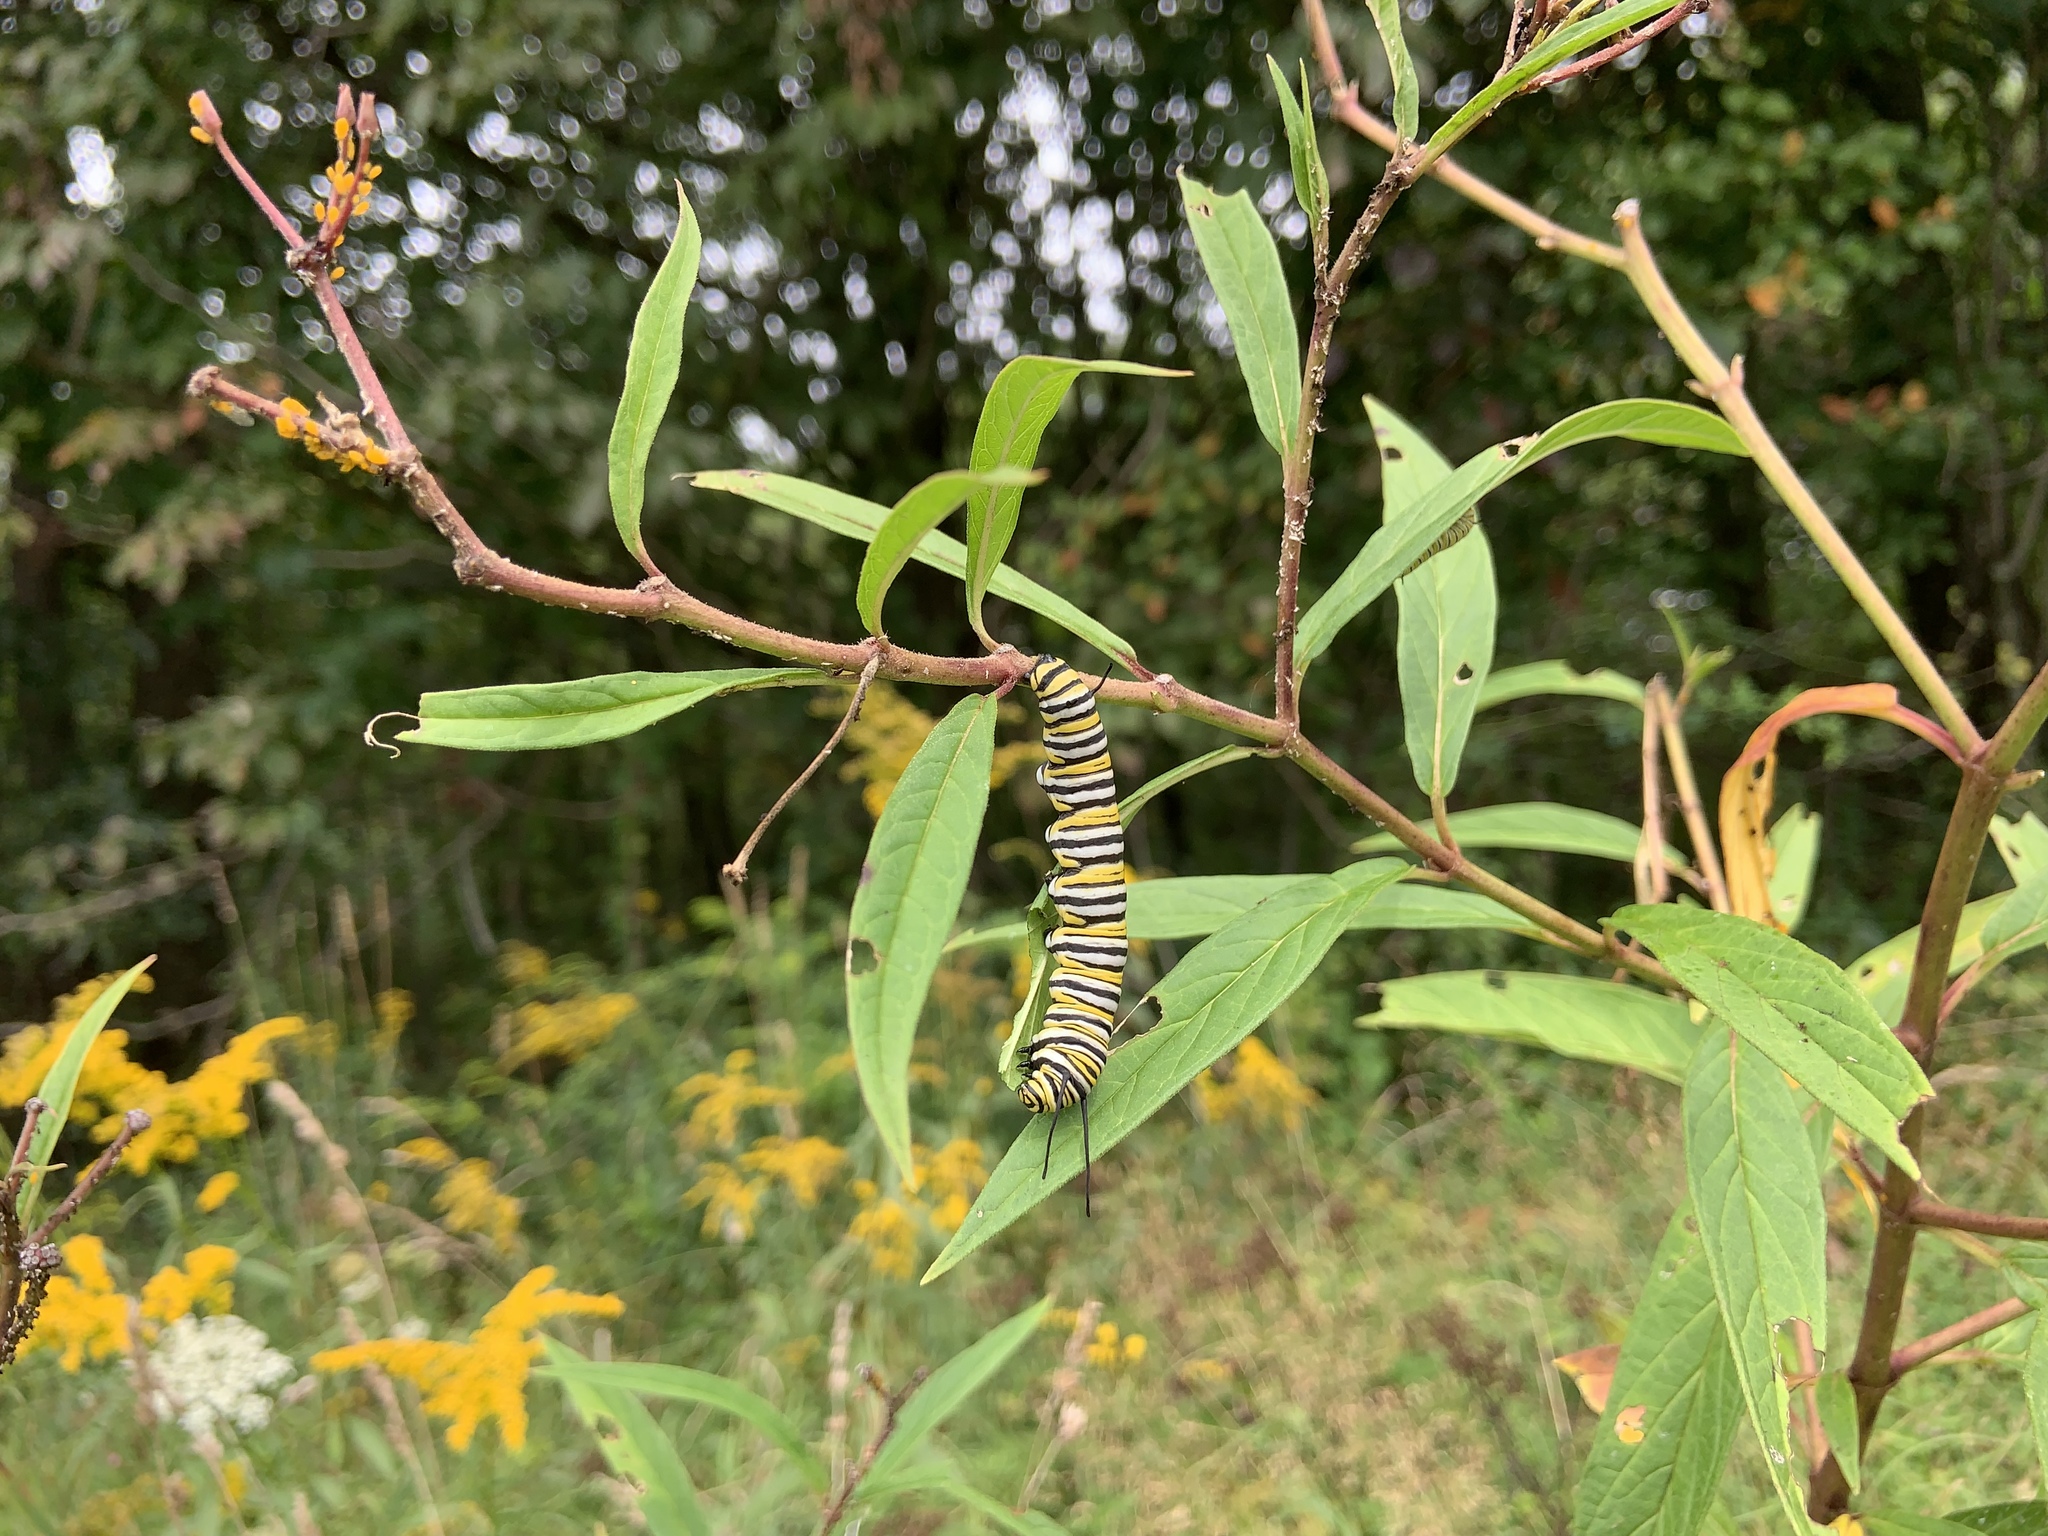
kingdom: Animalia
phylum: Arthropoda
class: Insecta
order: Lepidoptera
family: Nymphalidae
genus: Danaus
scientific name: Danaus plexippus
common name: Monarch
